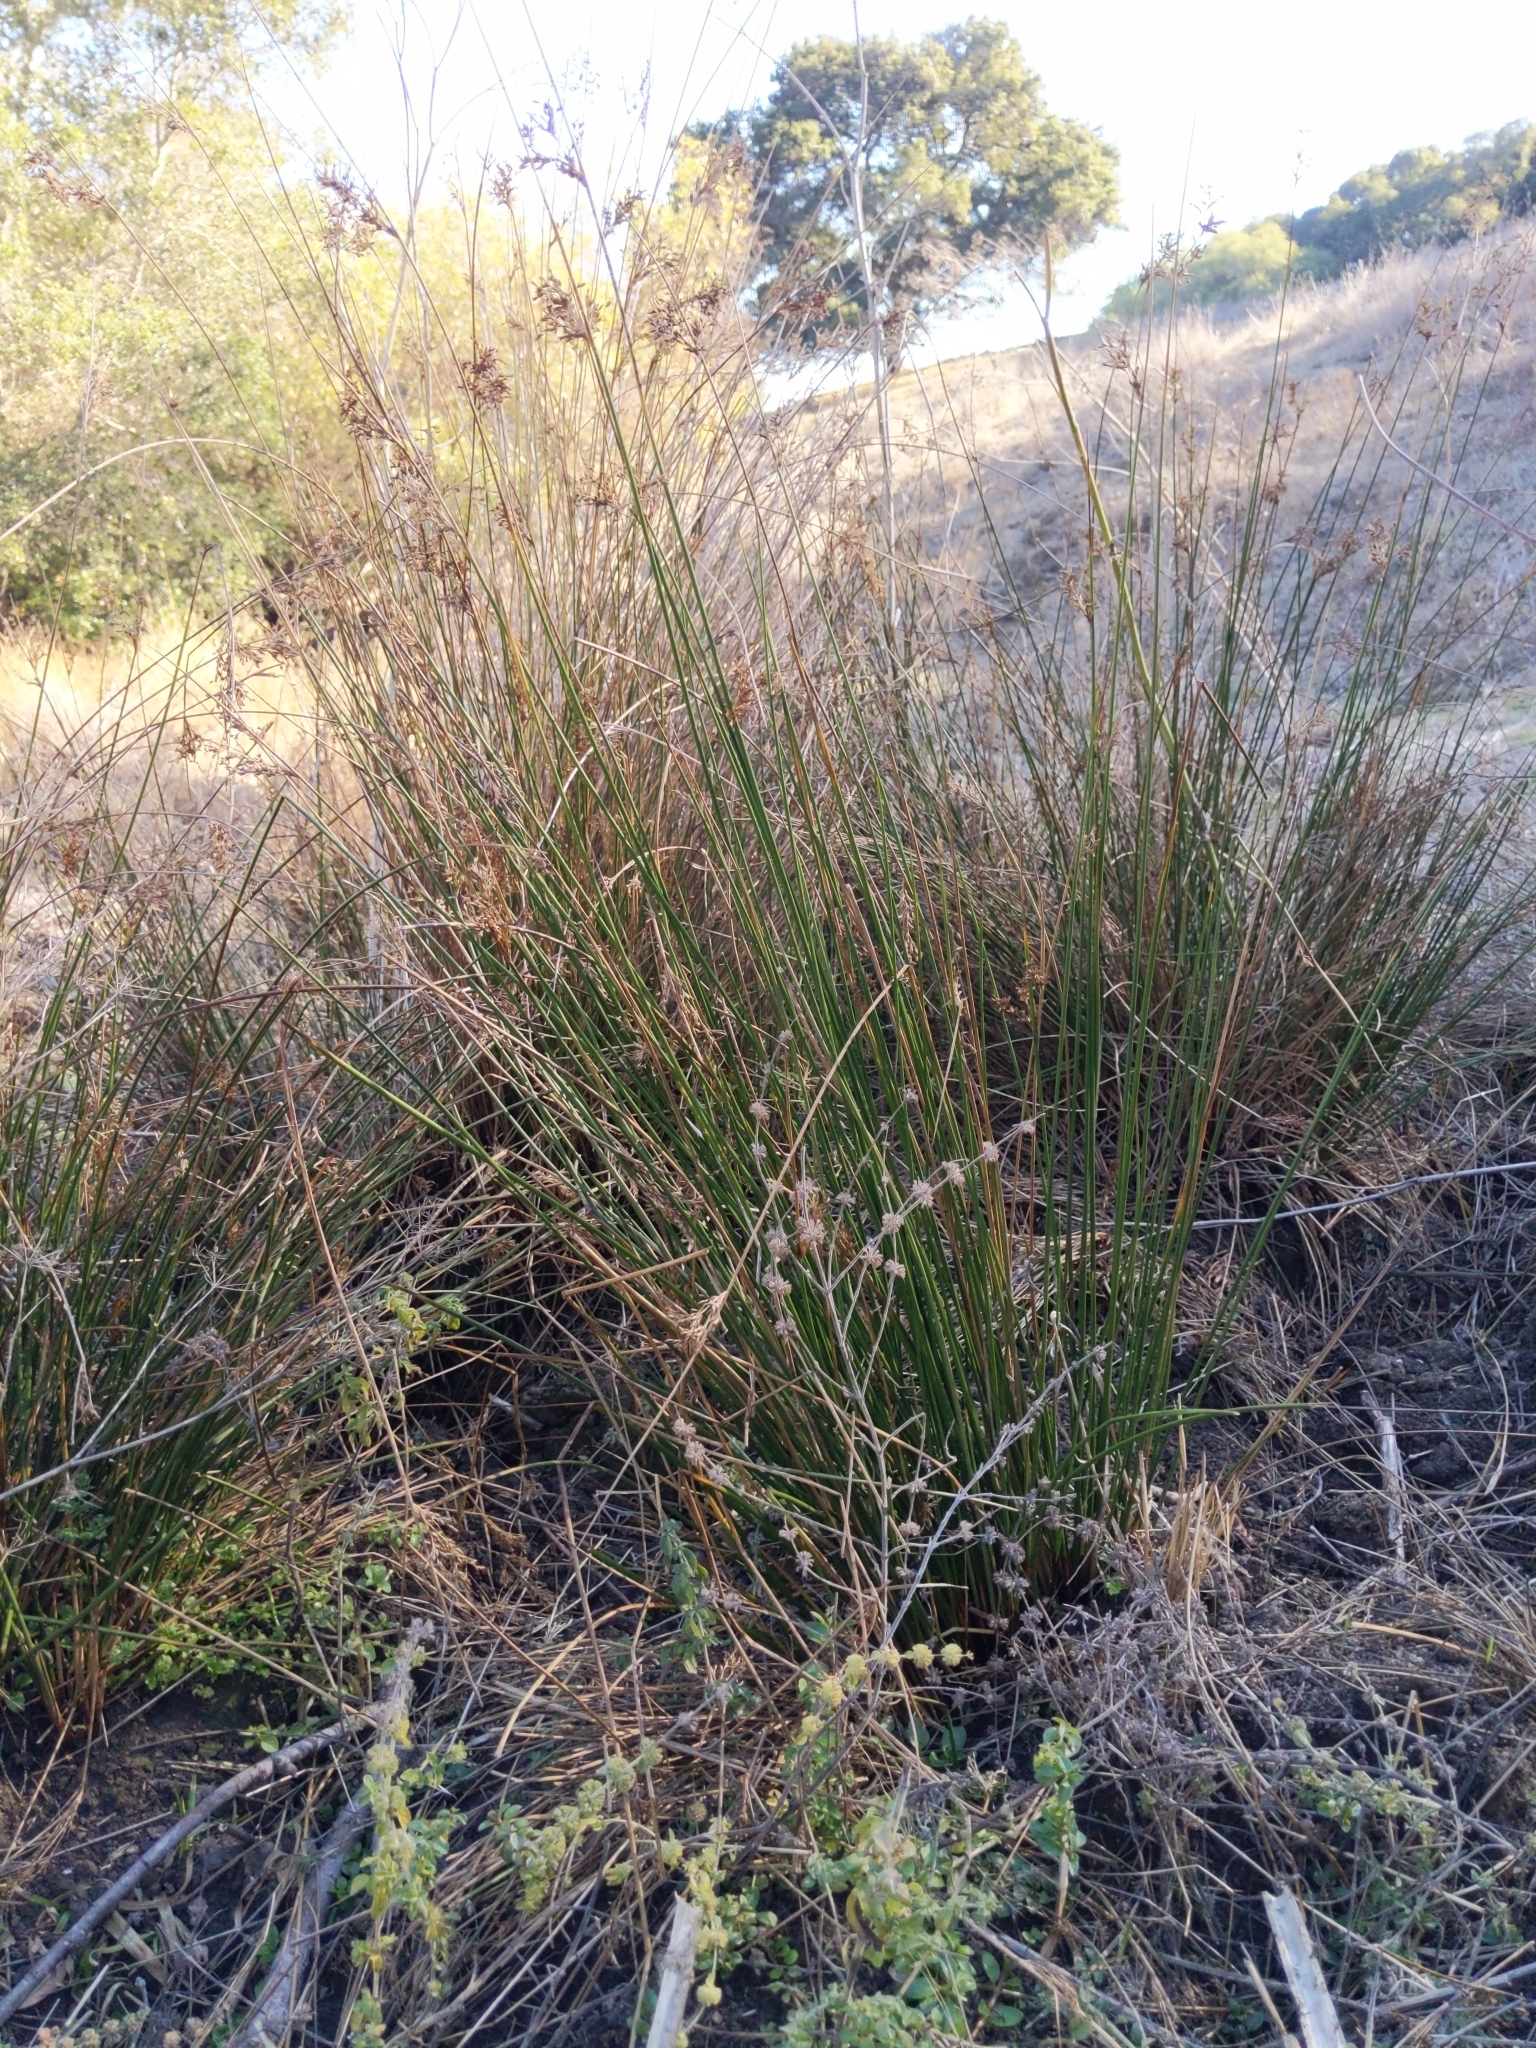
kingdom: Plantae
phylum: Tracheophyta
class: Liliopsida
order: Poales
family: Juncaceae
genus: Juncus
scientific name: Juncus effusus
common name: Soft rush
